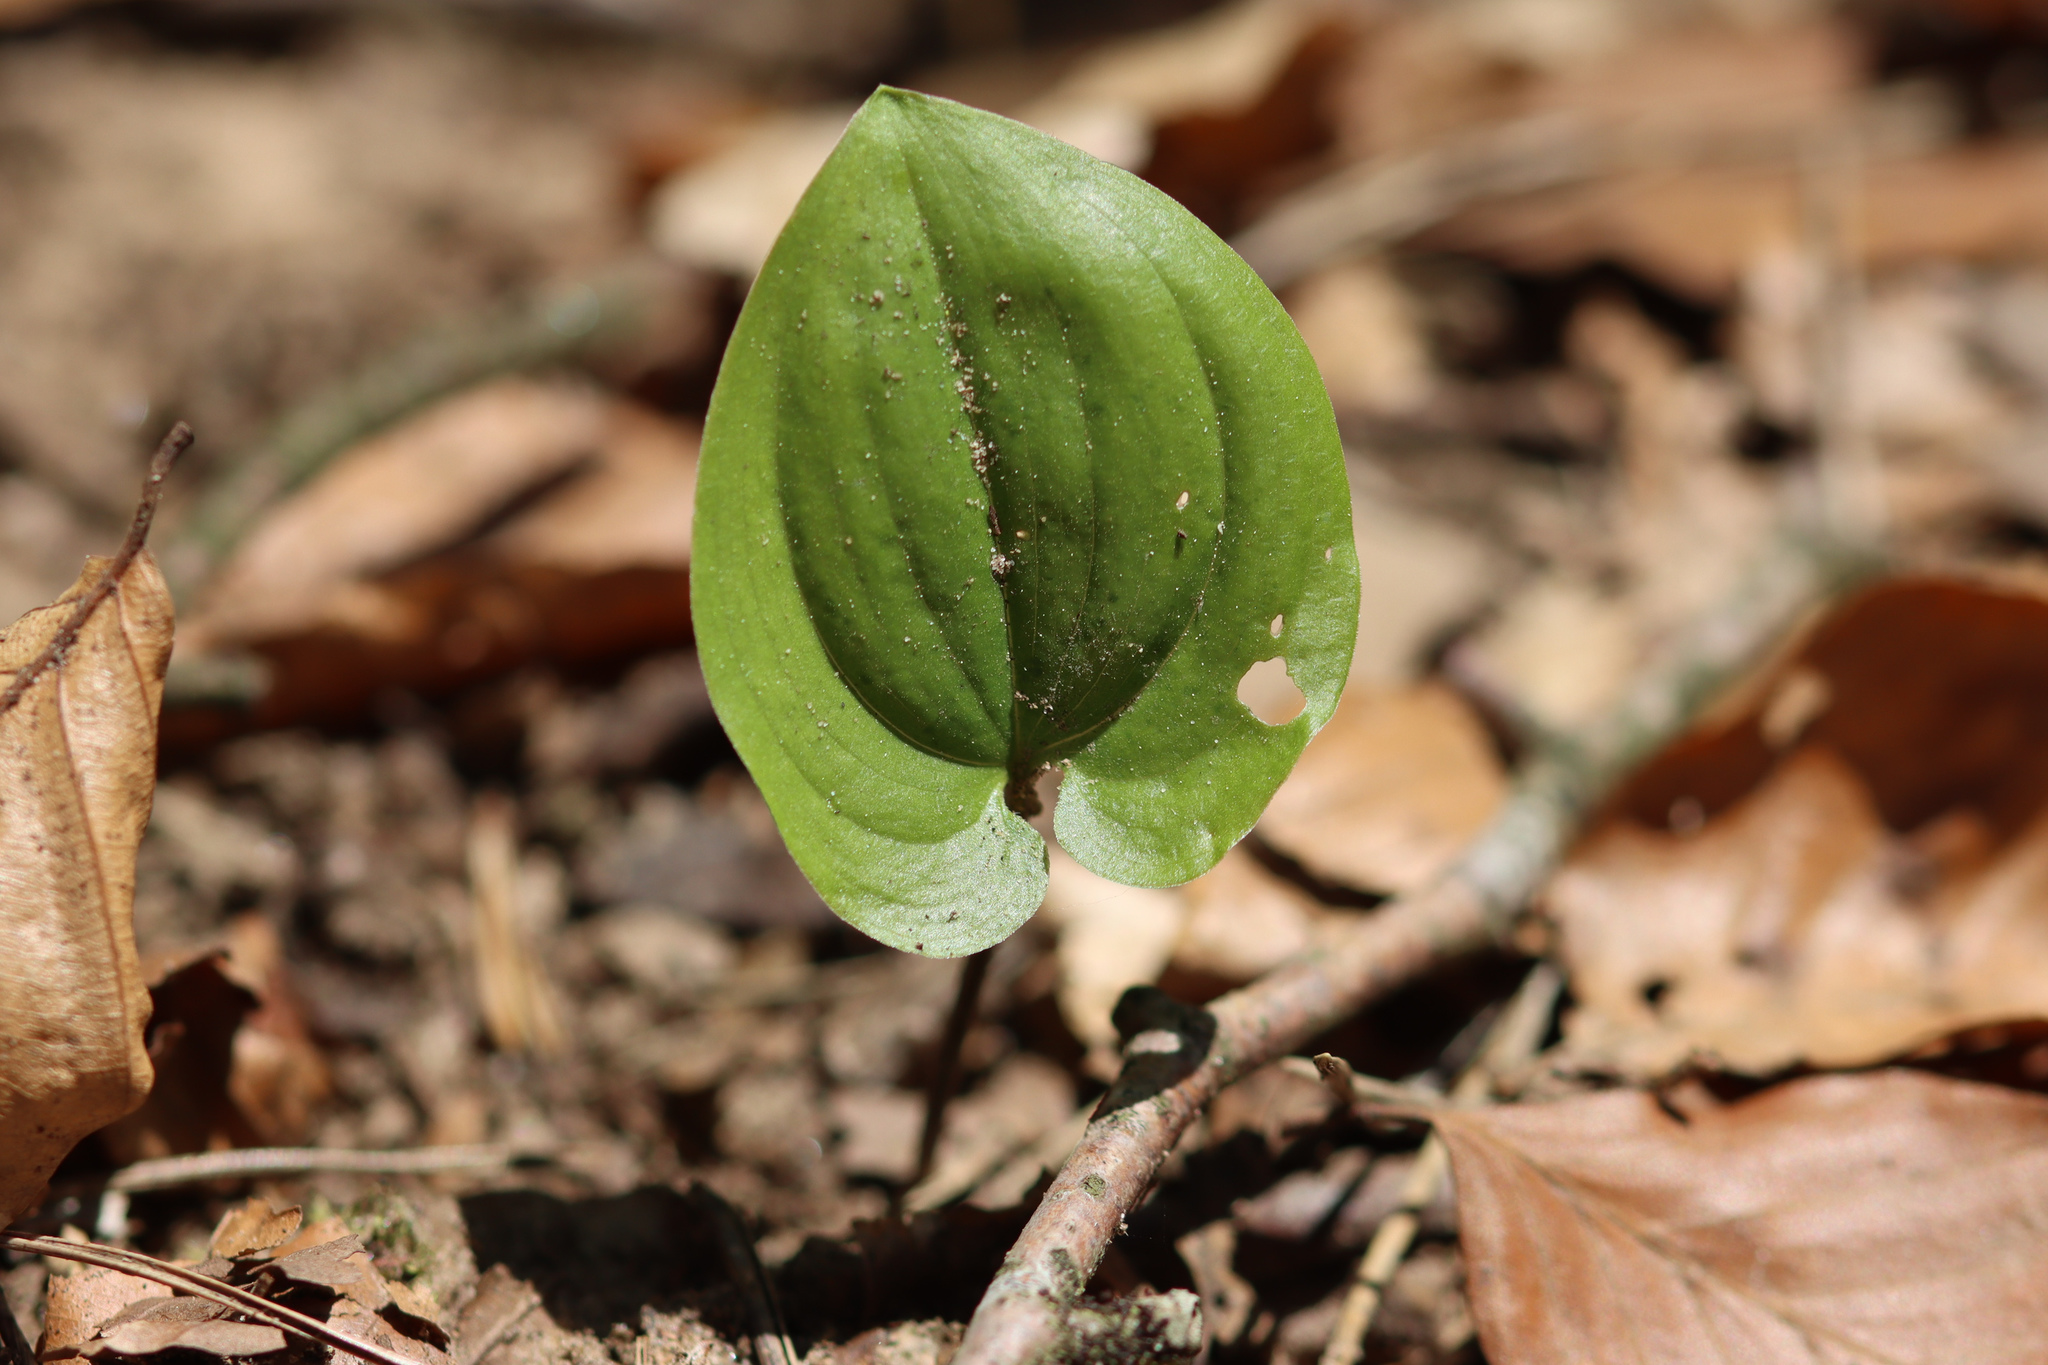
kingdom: Plantae
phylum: Tracheophyta
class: Liliopsida
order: Asparagales
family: Asparagaceae
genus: Maianthemum
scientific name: Maianthemum bifolium
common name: May lily
